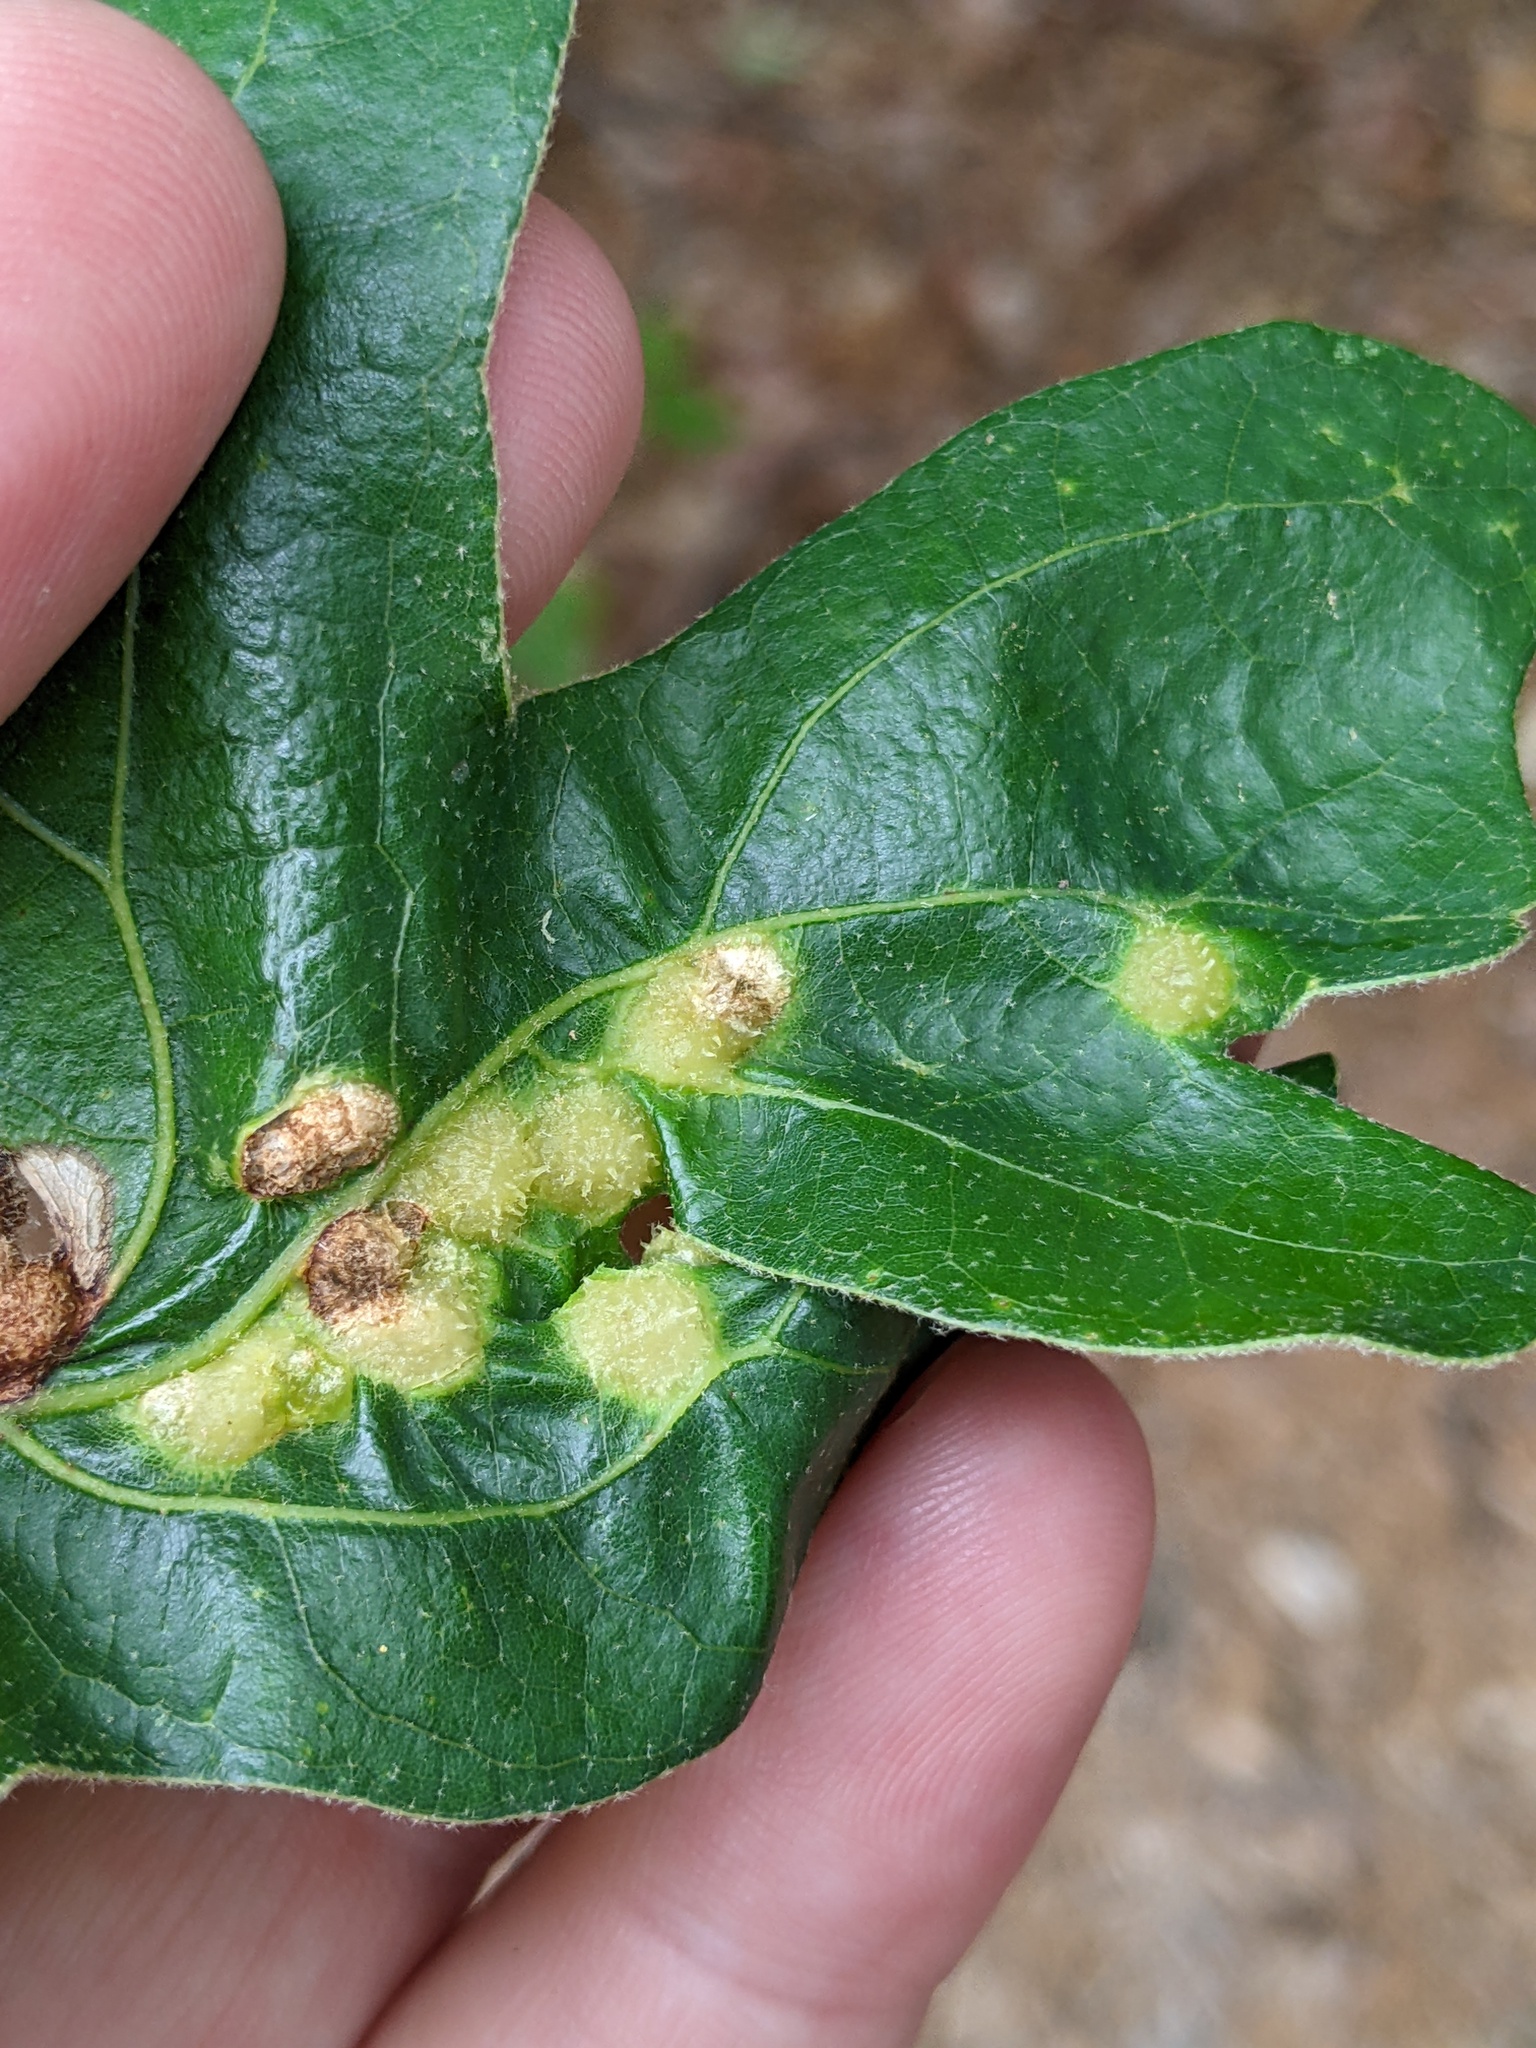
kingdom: Animalia
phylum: Arthropoda
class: Insecta
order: Hymenoptera
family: Cynipidae
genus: Neuroterus
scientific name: Neuroterus quercusirregularis
